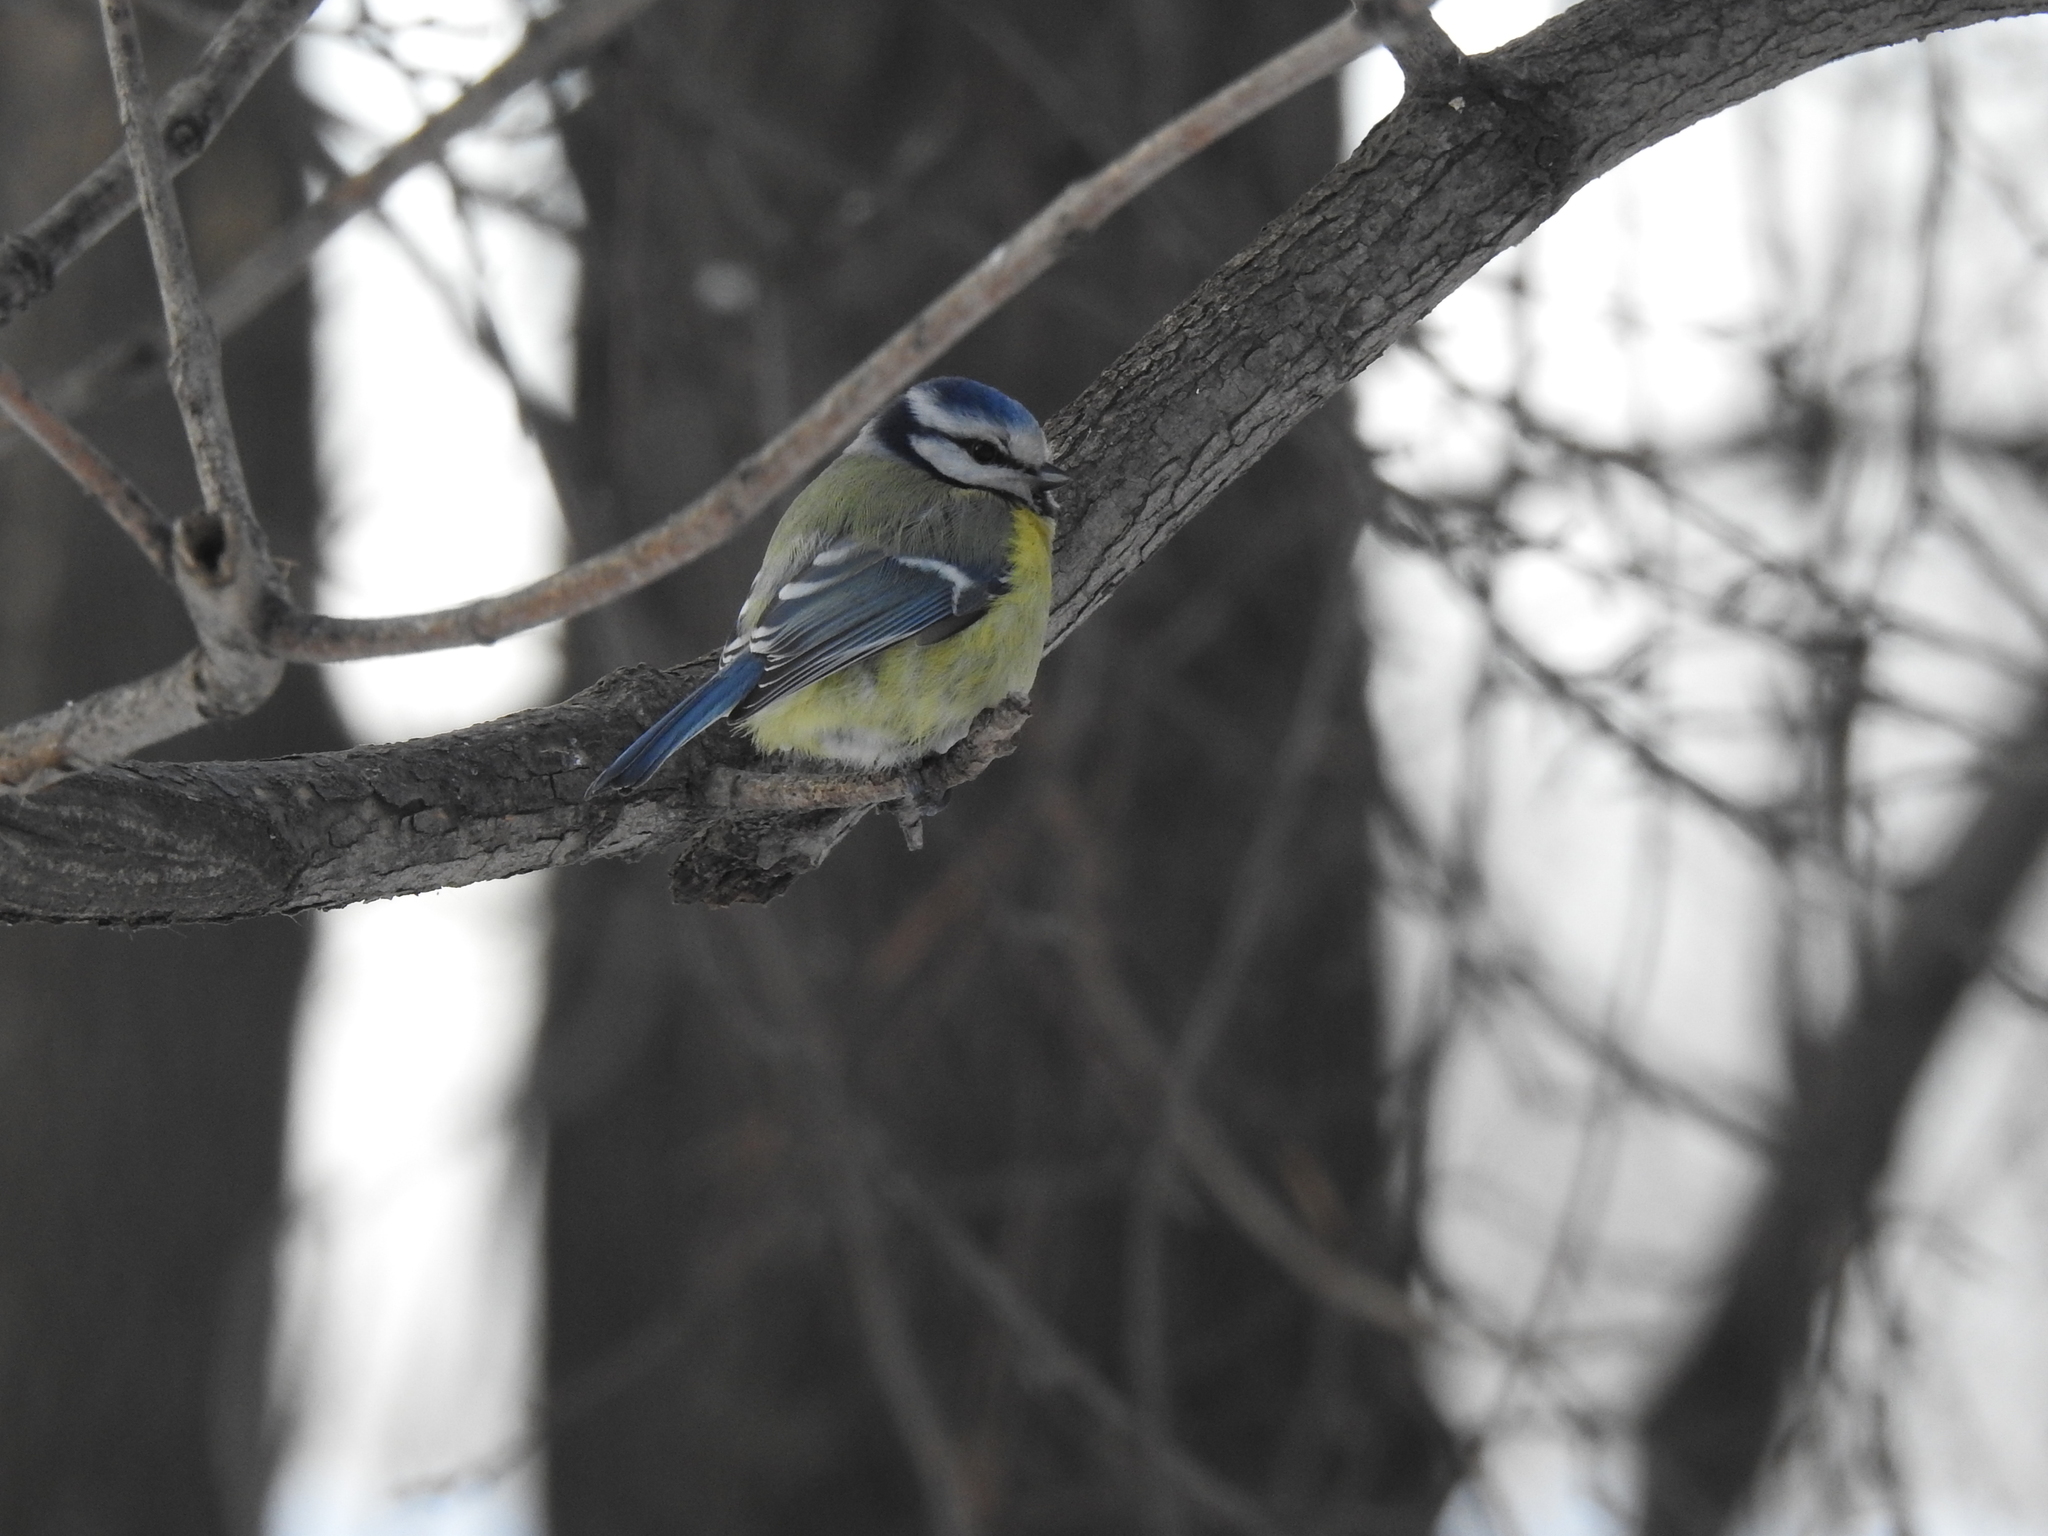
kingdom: Animalia
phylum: Chordata
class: Aves
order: Passeriformes
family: Paridae
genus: Cyanistes
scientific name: Cyanistes caeruleus
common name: Eurasian blue tit
